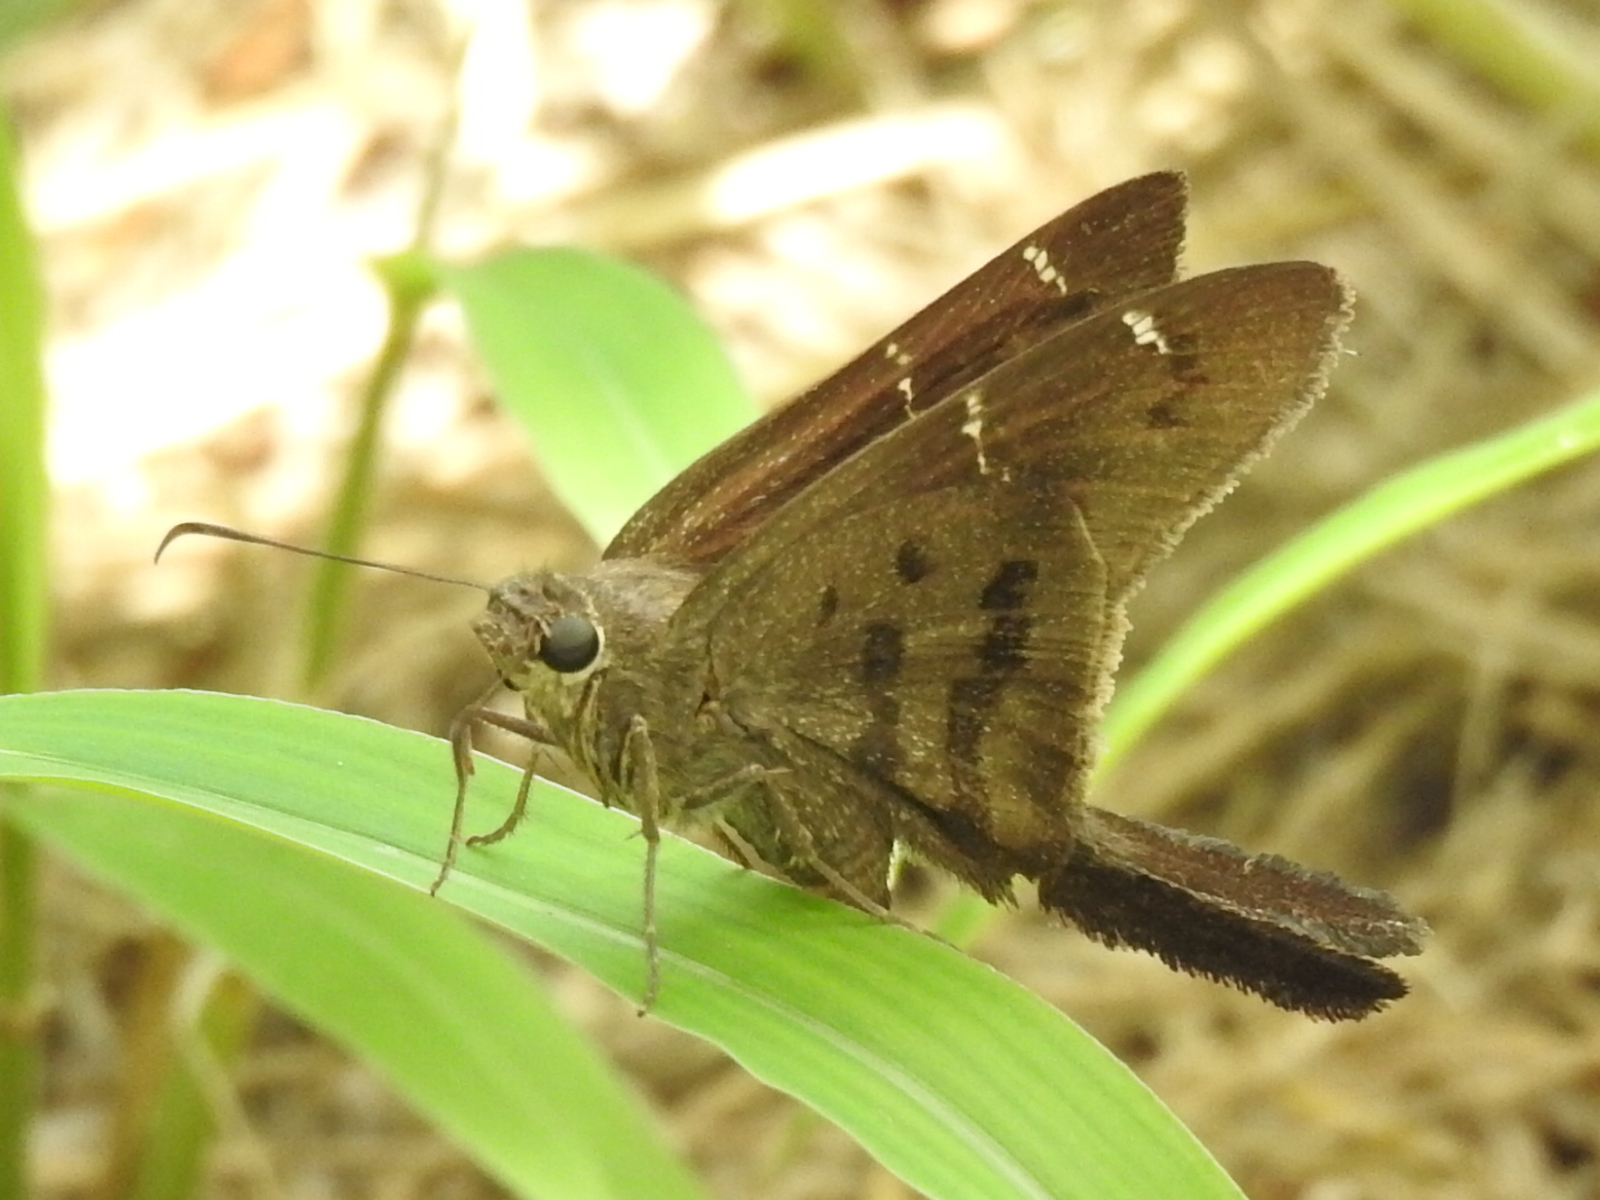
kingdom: Animalia
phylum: Arthropoda
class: Insecta
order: Lepidoptera
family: Hesperiidae
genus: Urbanus
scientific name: Urbanus procne
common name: Brown longtail
